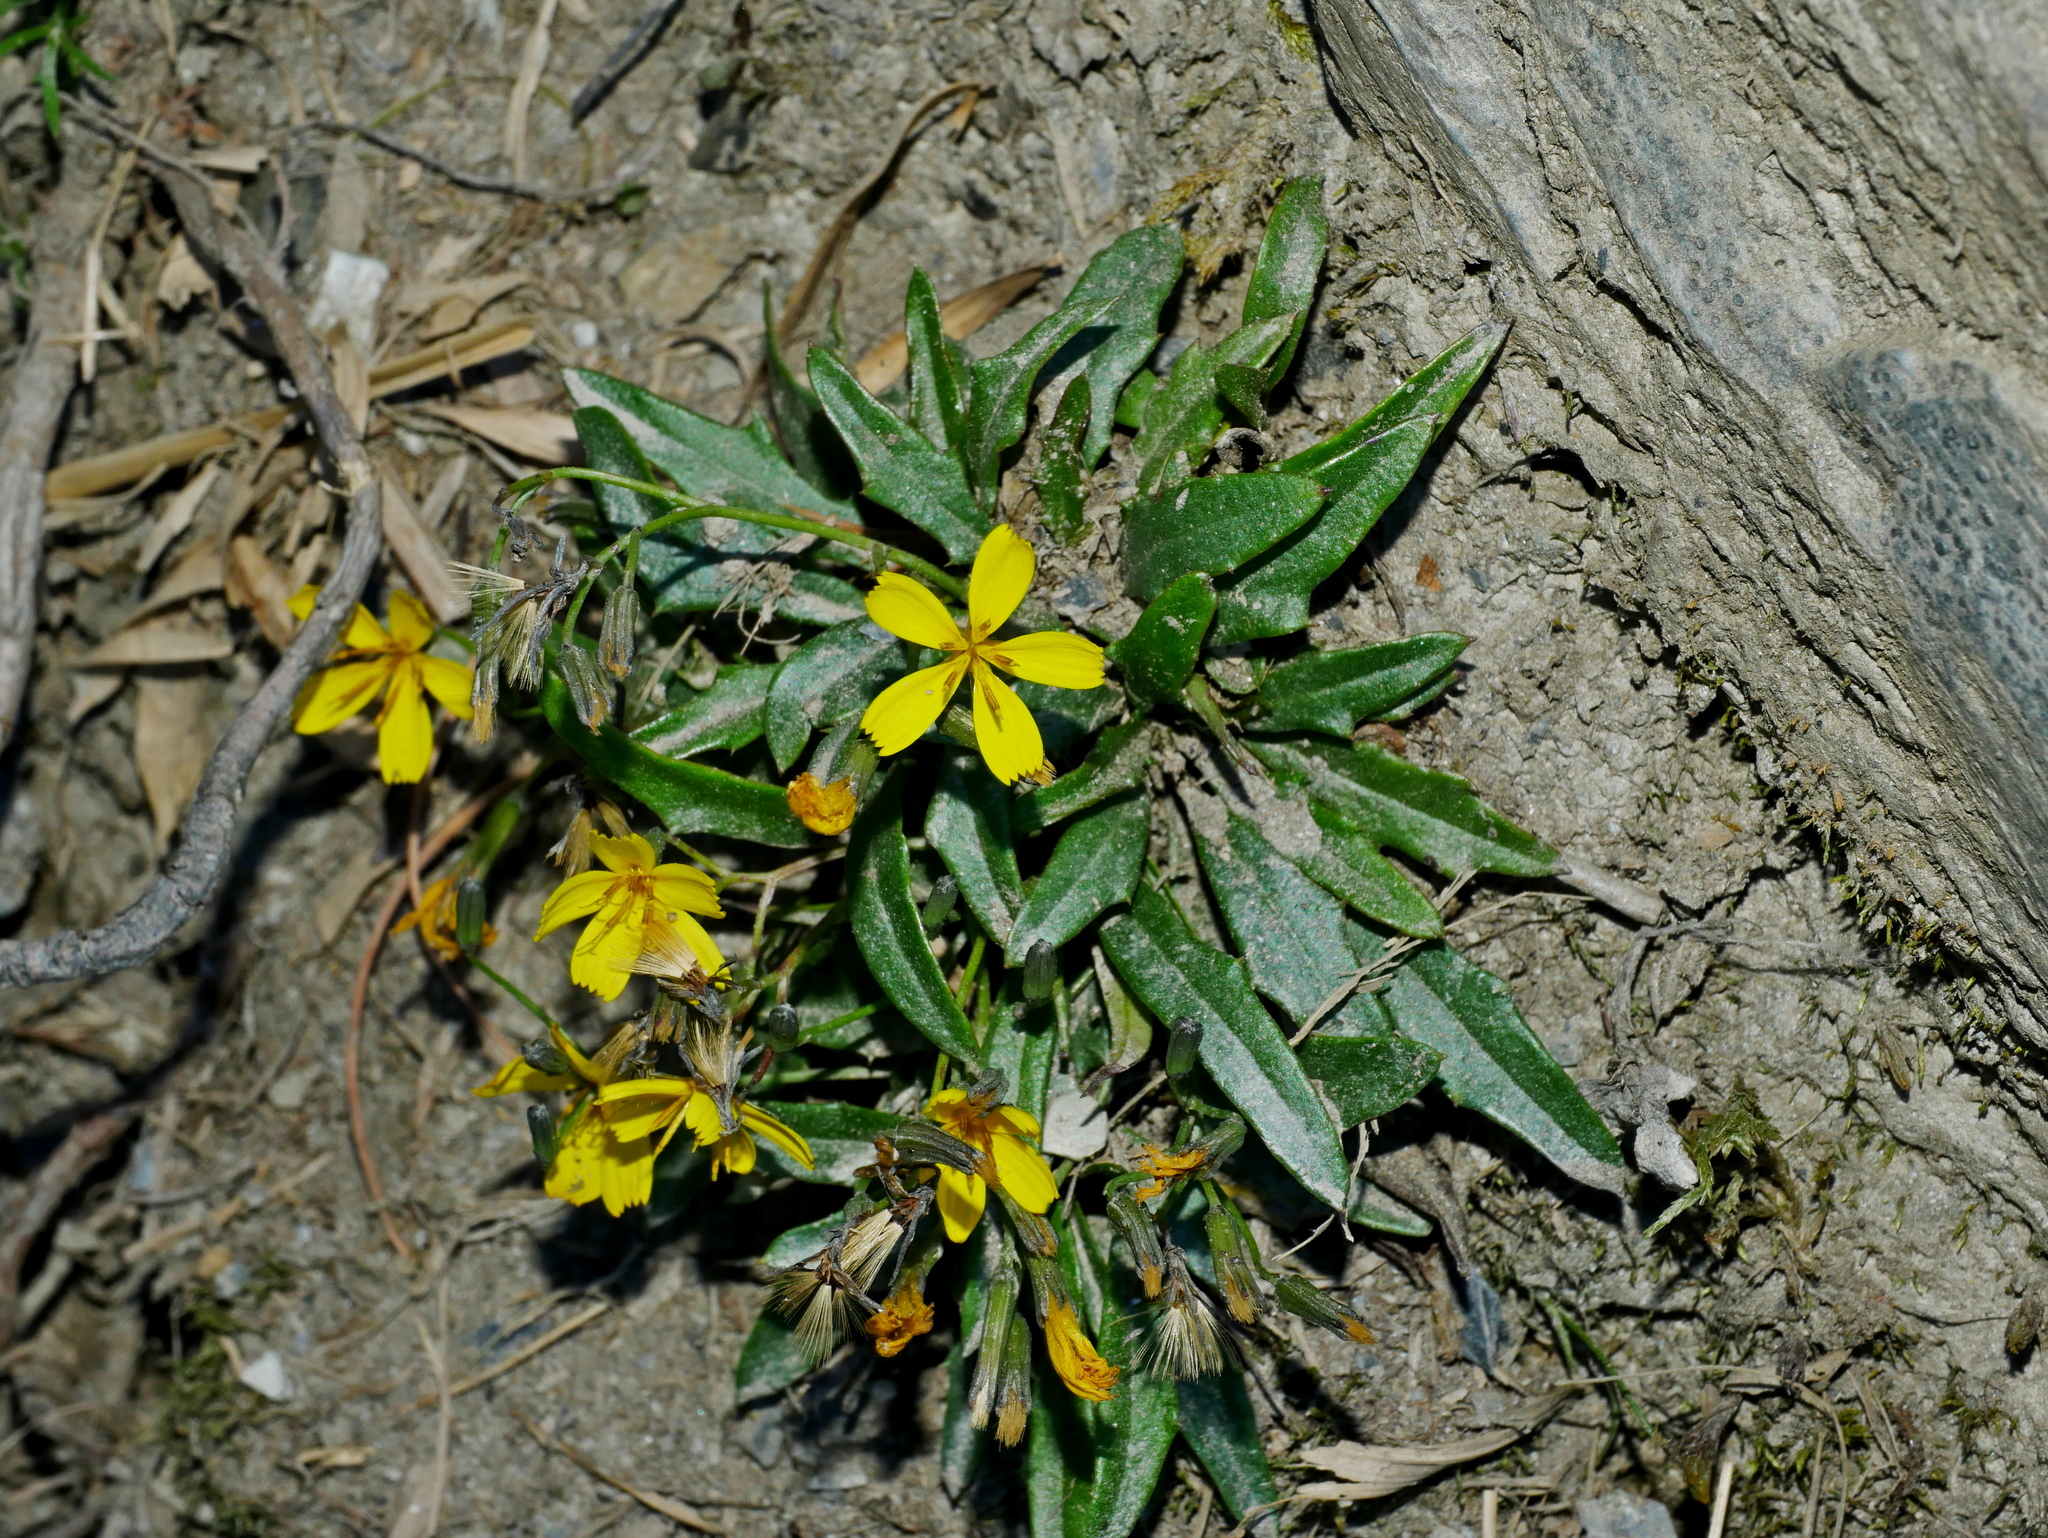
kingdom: Plantae
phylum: Tracheophyta
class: Magnoliopsida
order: Asterales
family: Asteraceae
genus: Ixeridium
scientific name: Ixeridium transnokoense
